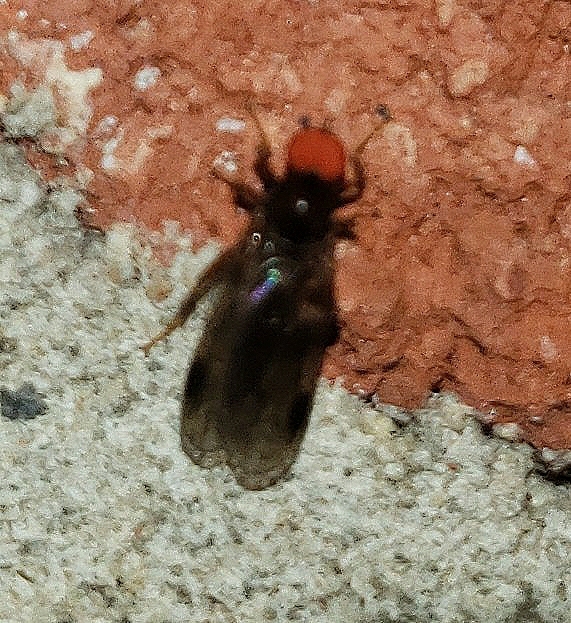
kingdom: Animalia
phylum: Arthropoda
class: Insecta
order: Diptera
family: Hybotidae
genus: Syneches
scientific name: Syneches thoracicus
